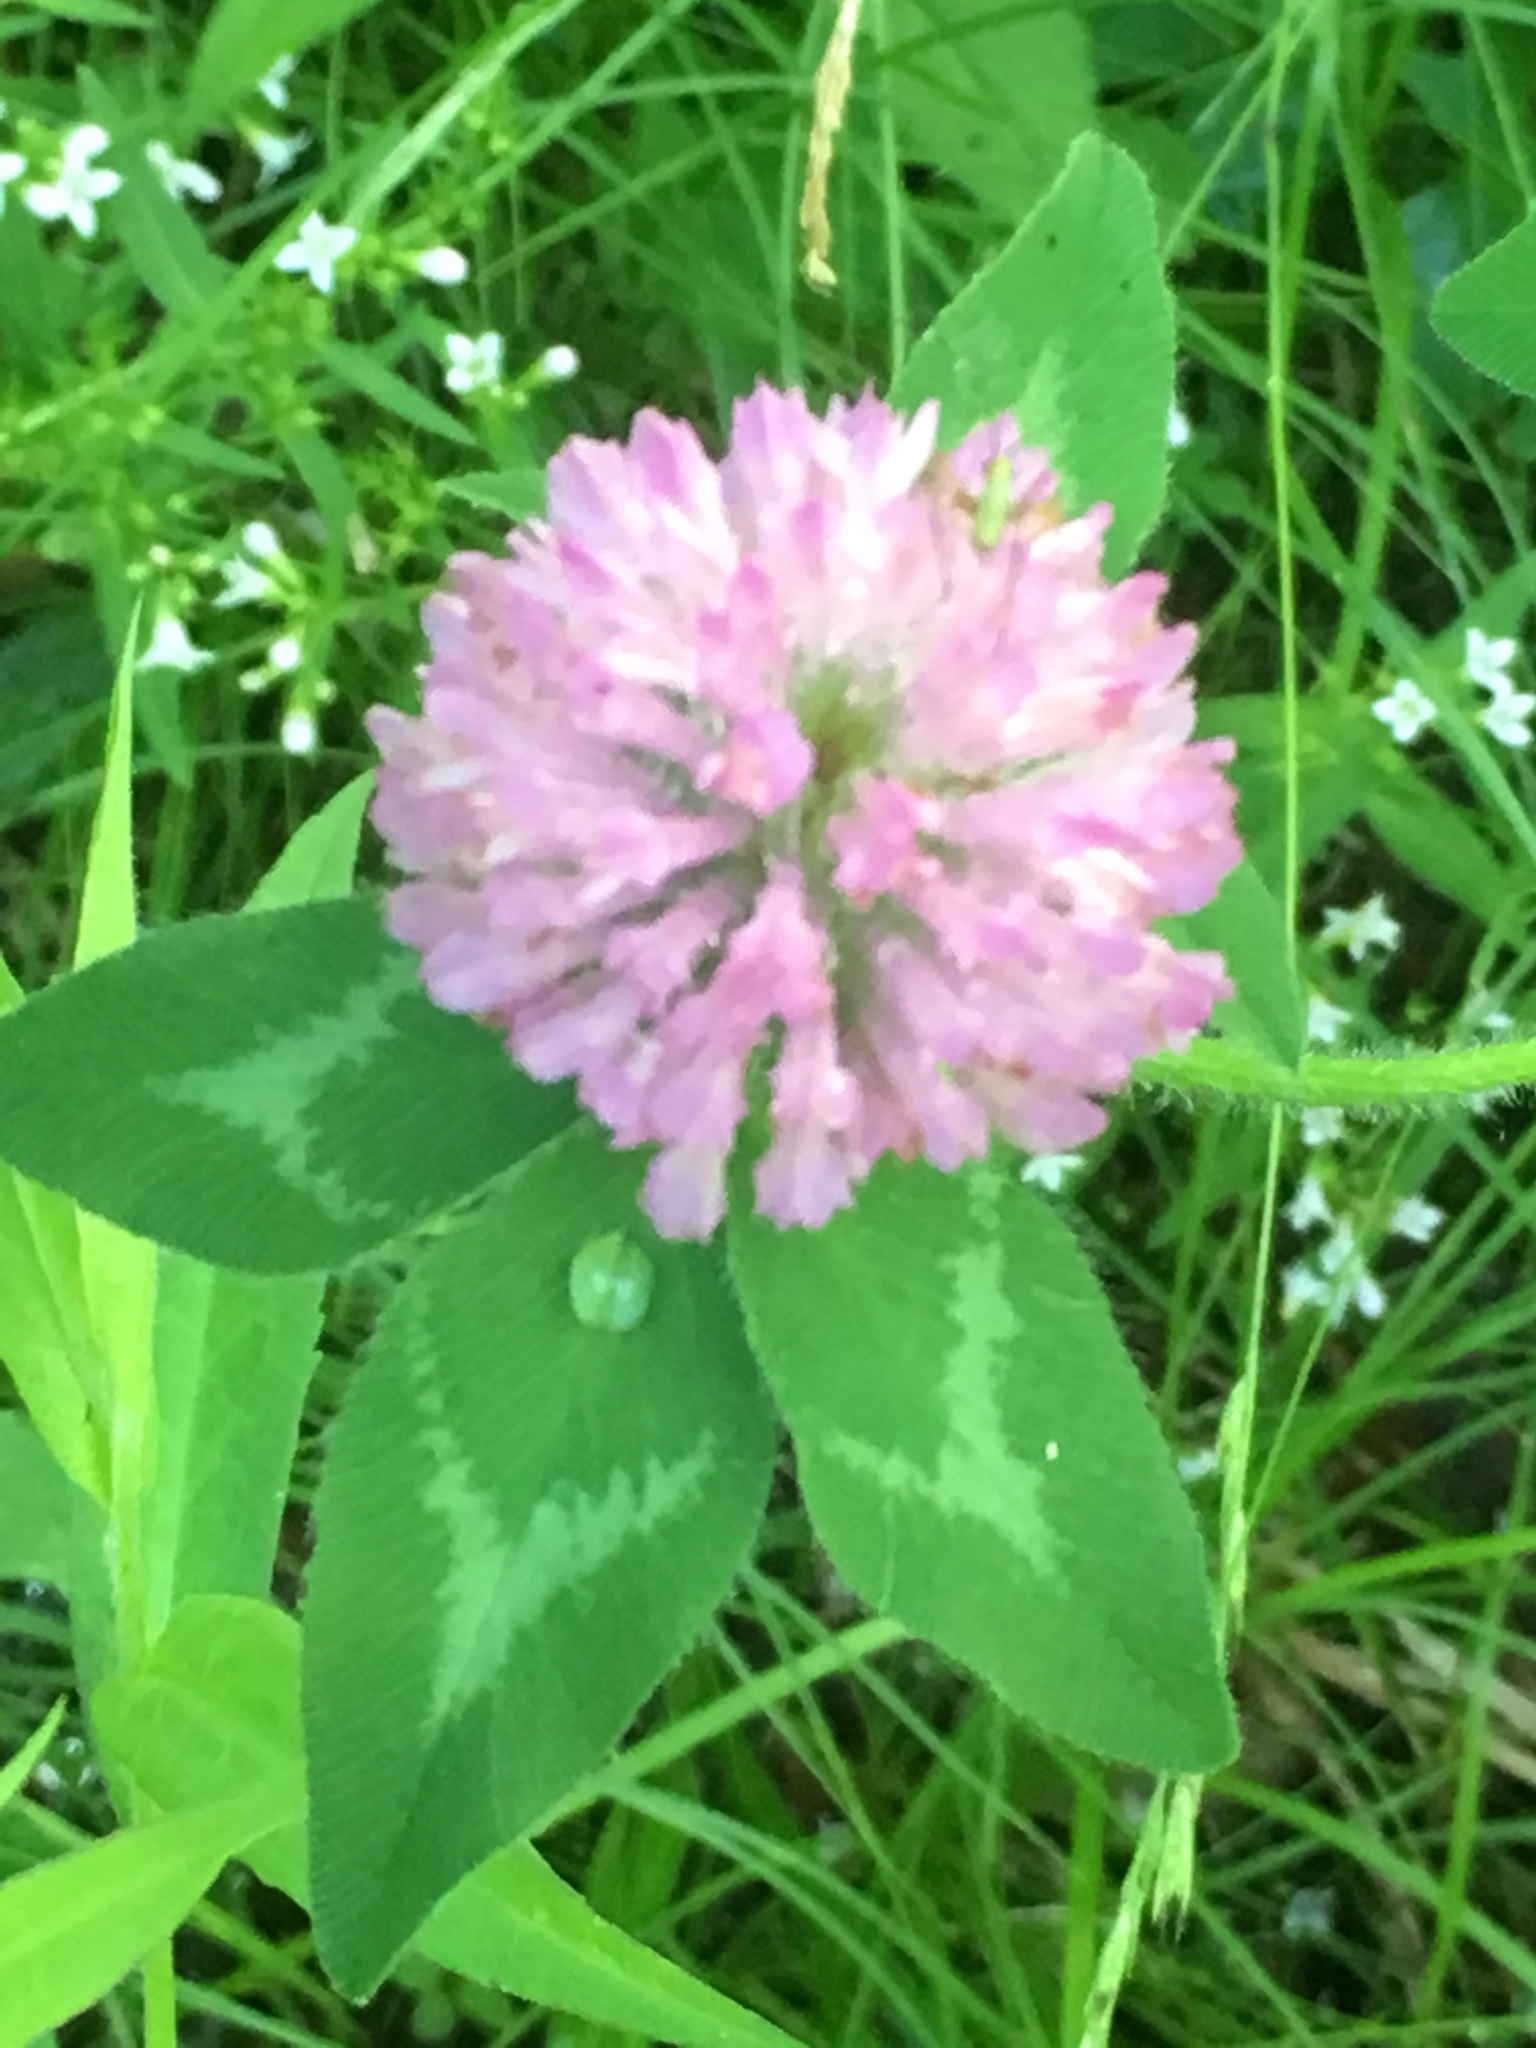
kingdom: Plantae
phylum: Tracheophyta
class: Magnoliopsida
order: Fabales
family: Fabaceae
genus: Trifolium
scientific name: Trifolium pratense
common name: Red clover
